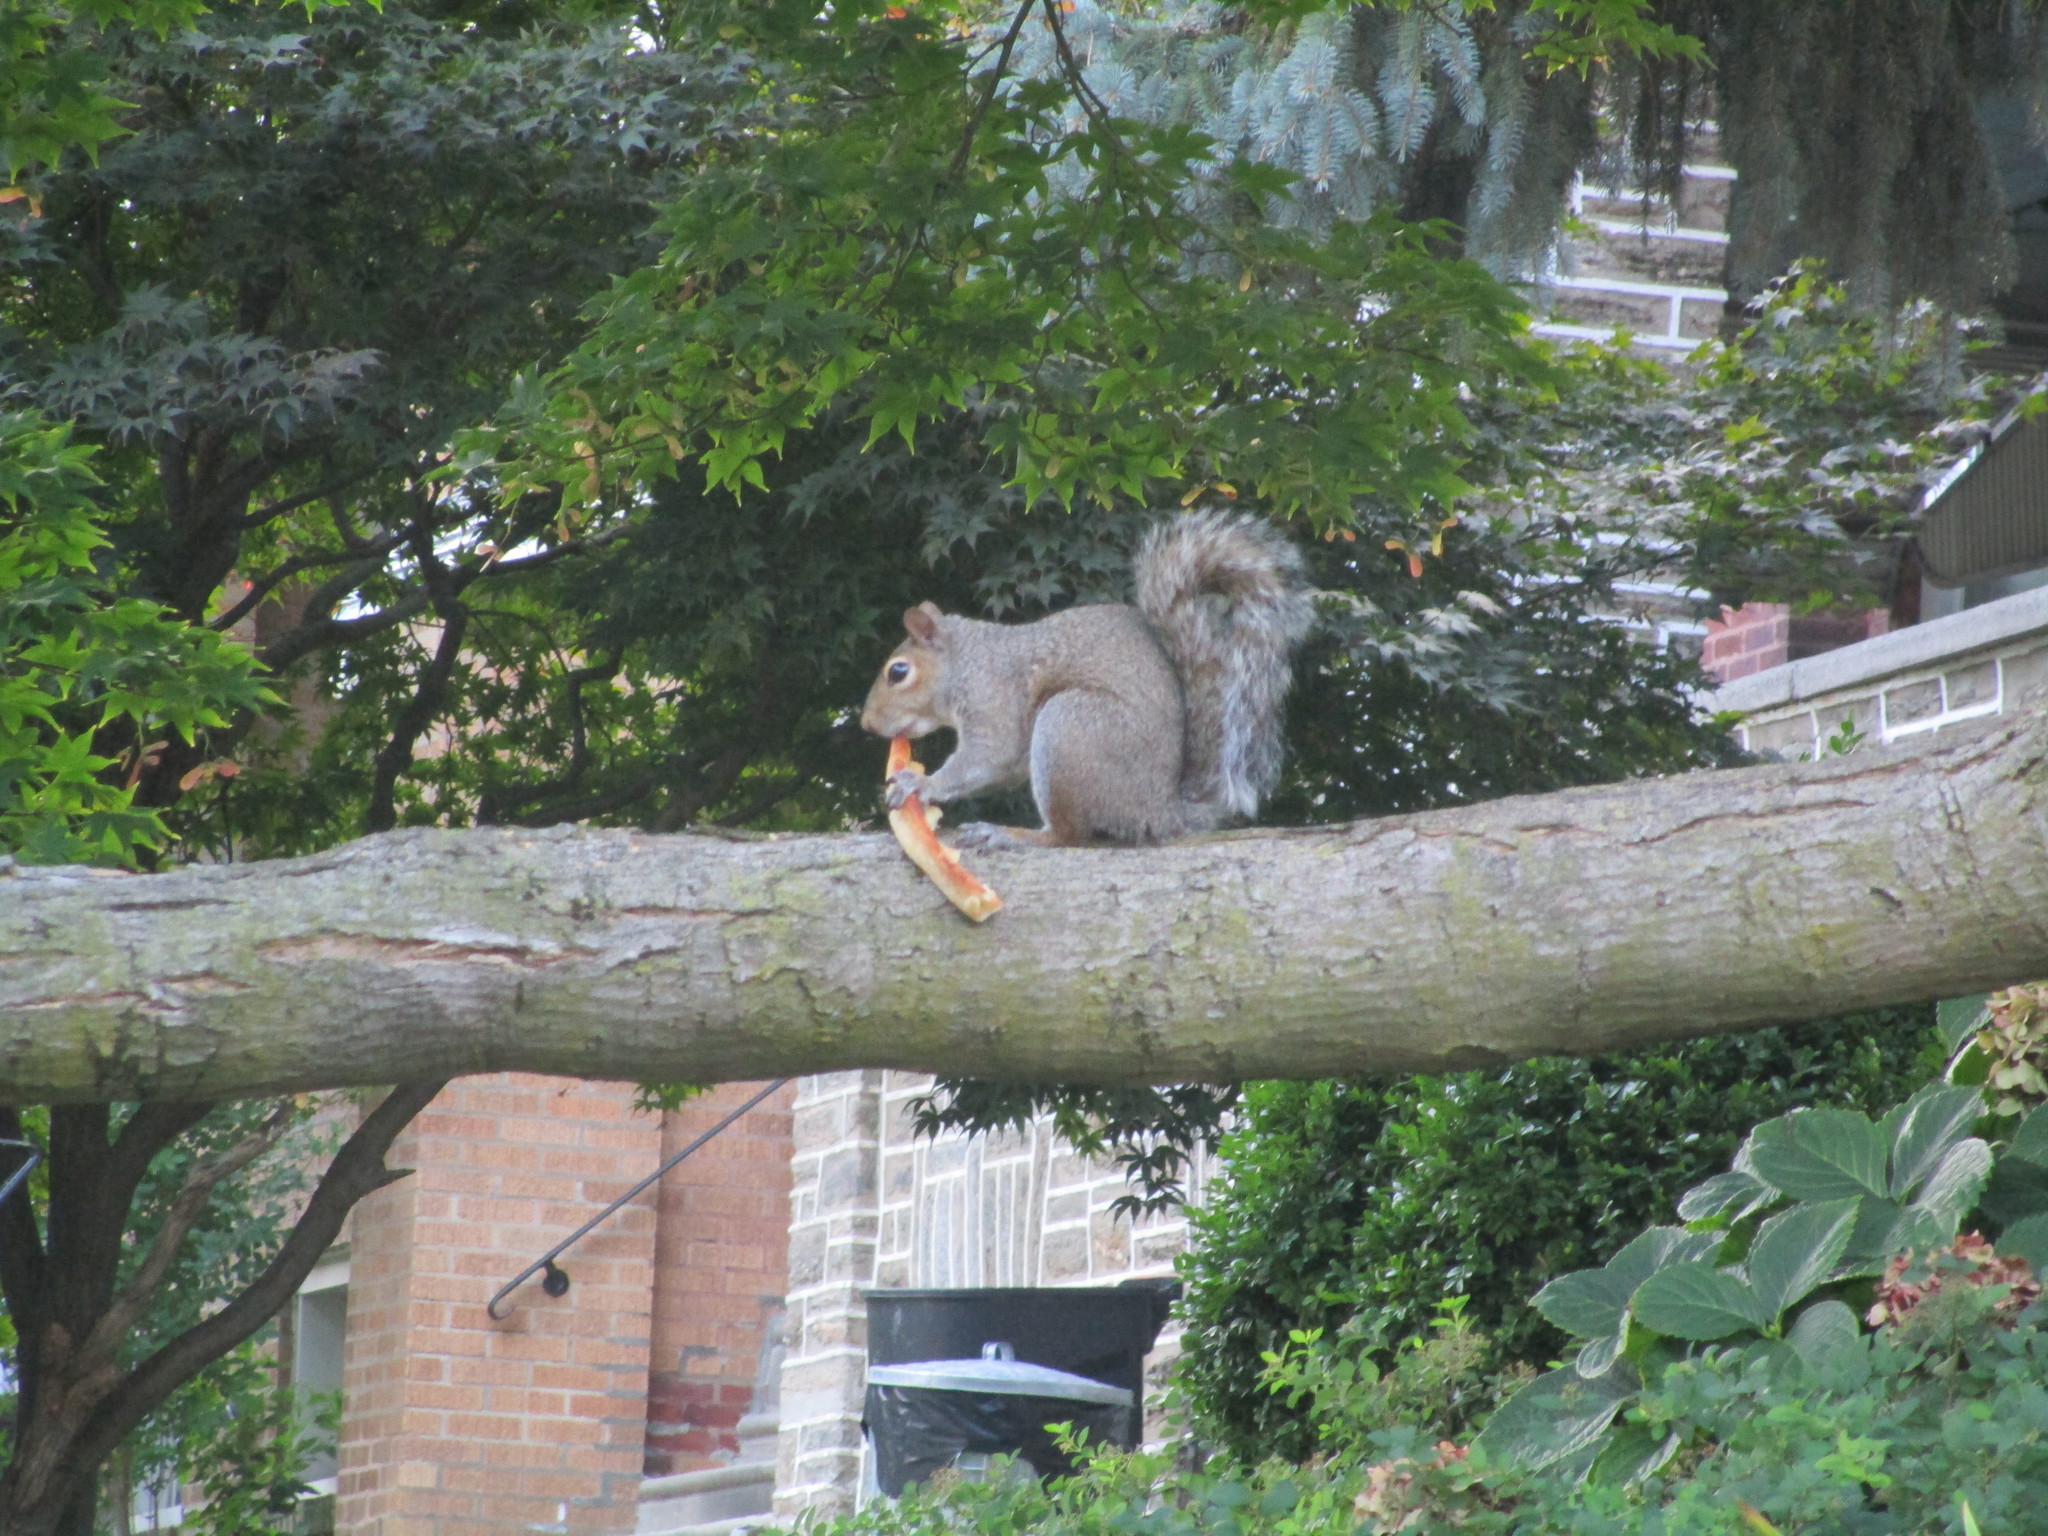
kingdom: Animalia
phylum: Chordata
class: Mammalia
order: Rodentia
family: Sciuridae
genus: Sciurus
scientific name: Sciurus carolinensis
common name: Eastern gray squirrel
